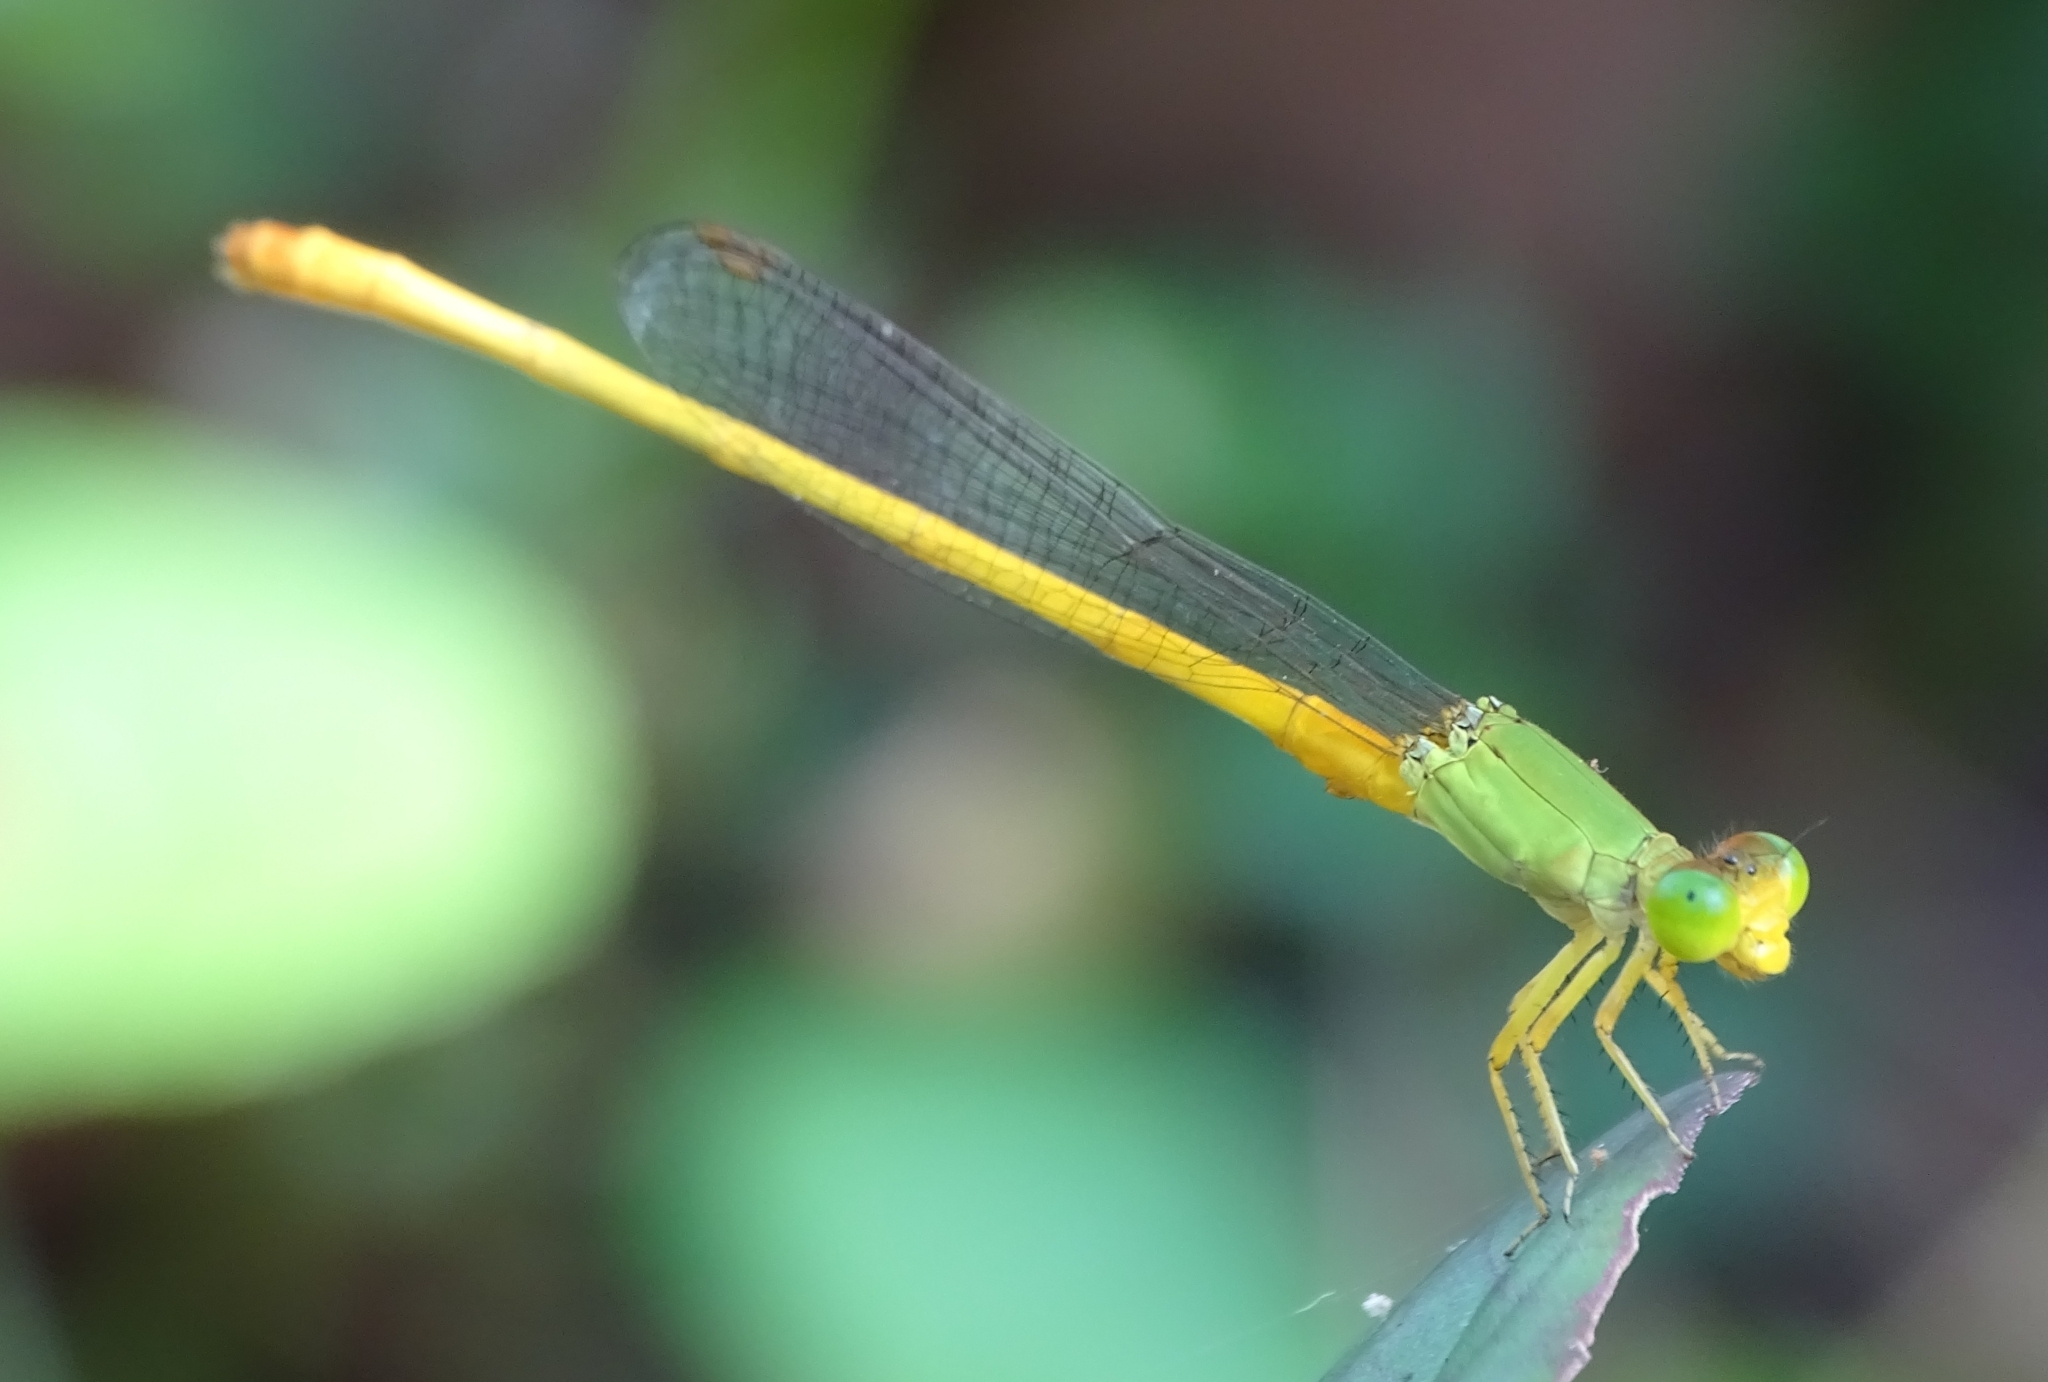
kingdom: Animalia
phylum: Arthropoda
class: Insecta
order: Odonata
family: Coenagrionidae
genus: Ceriagrion
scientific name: Ceriagrion coromandelianum
